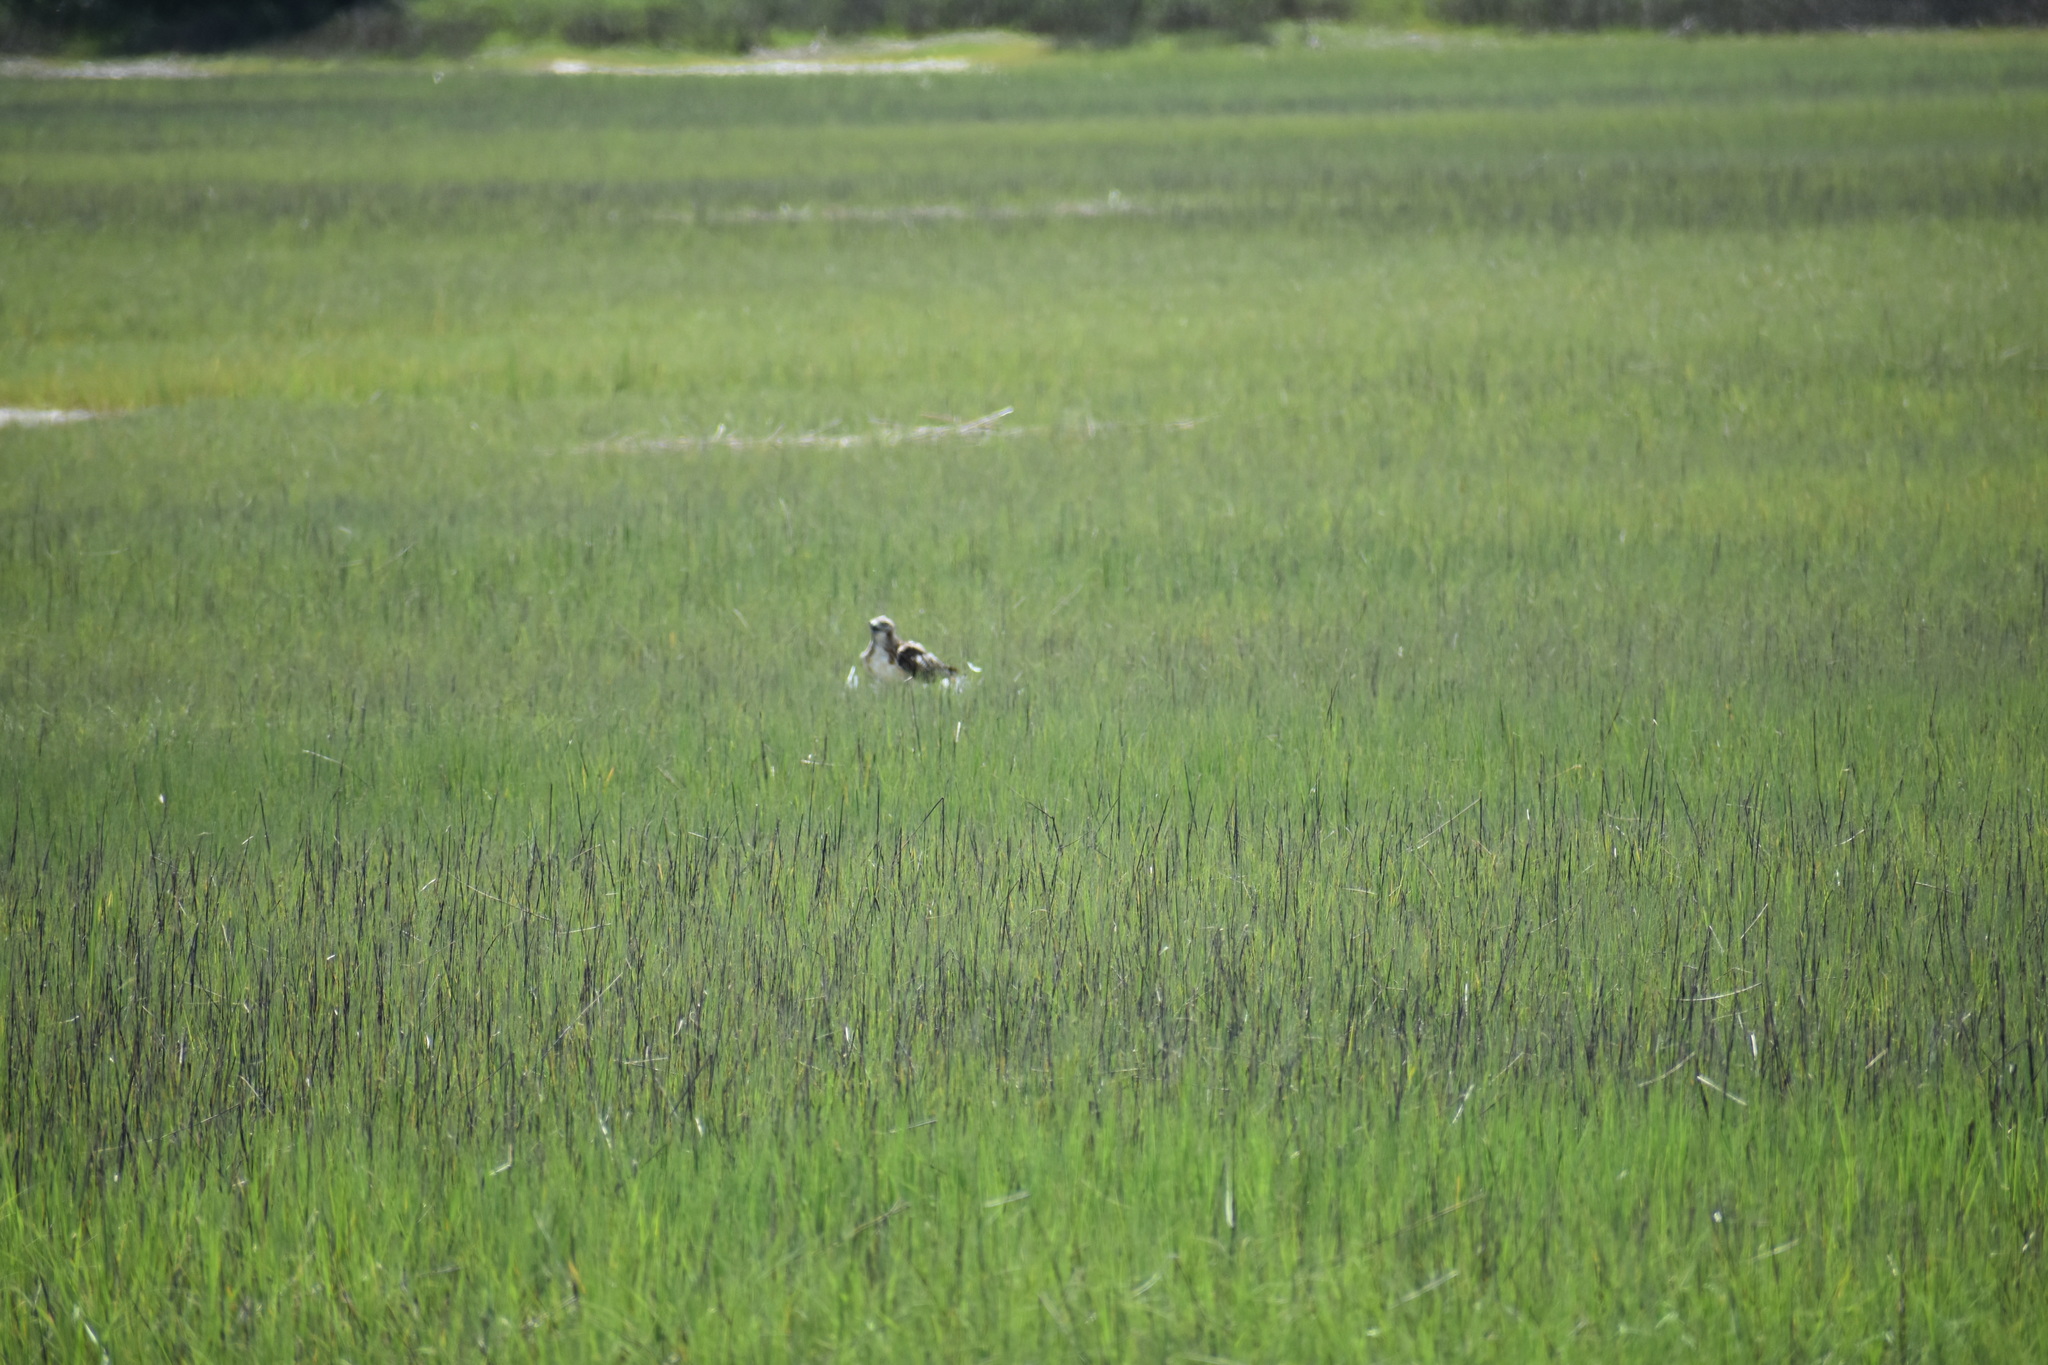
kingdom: Animalia
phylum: Chordata
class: Aves
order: Accipitriformes
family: Accipitridae
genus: Buteo
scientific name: Buteo jamaicensis
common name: Red-tailed hawk
